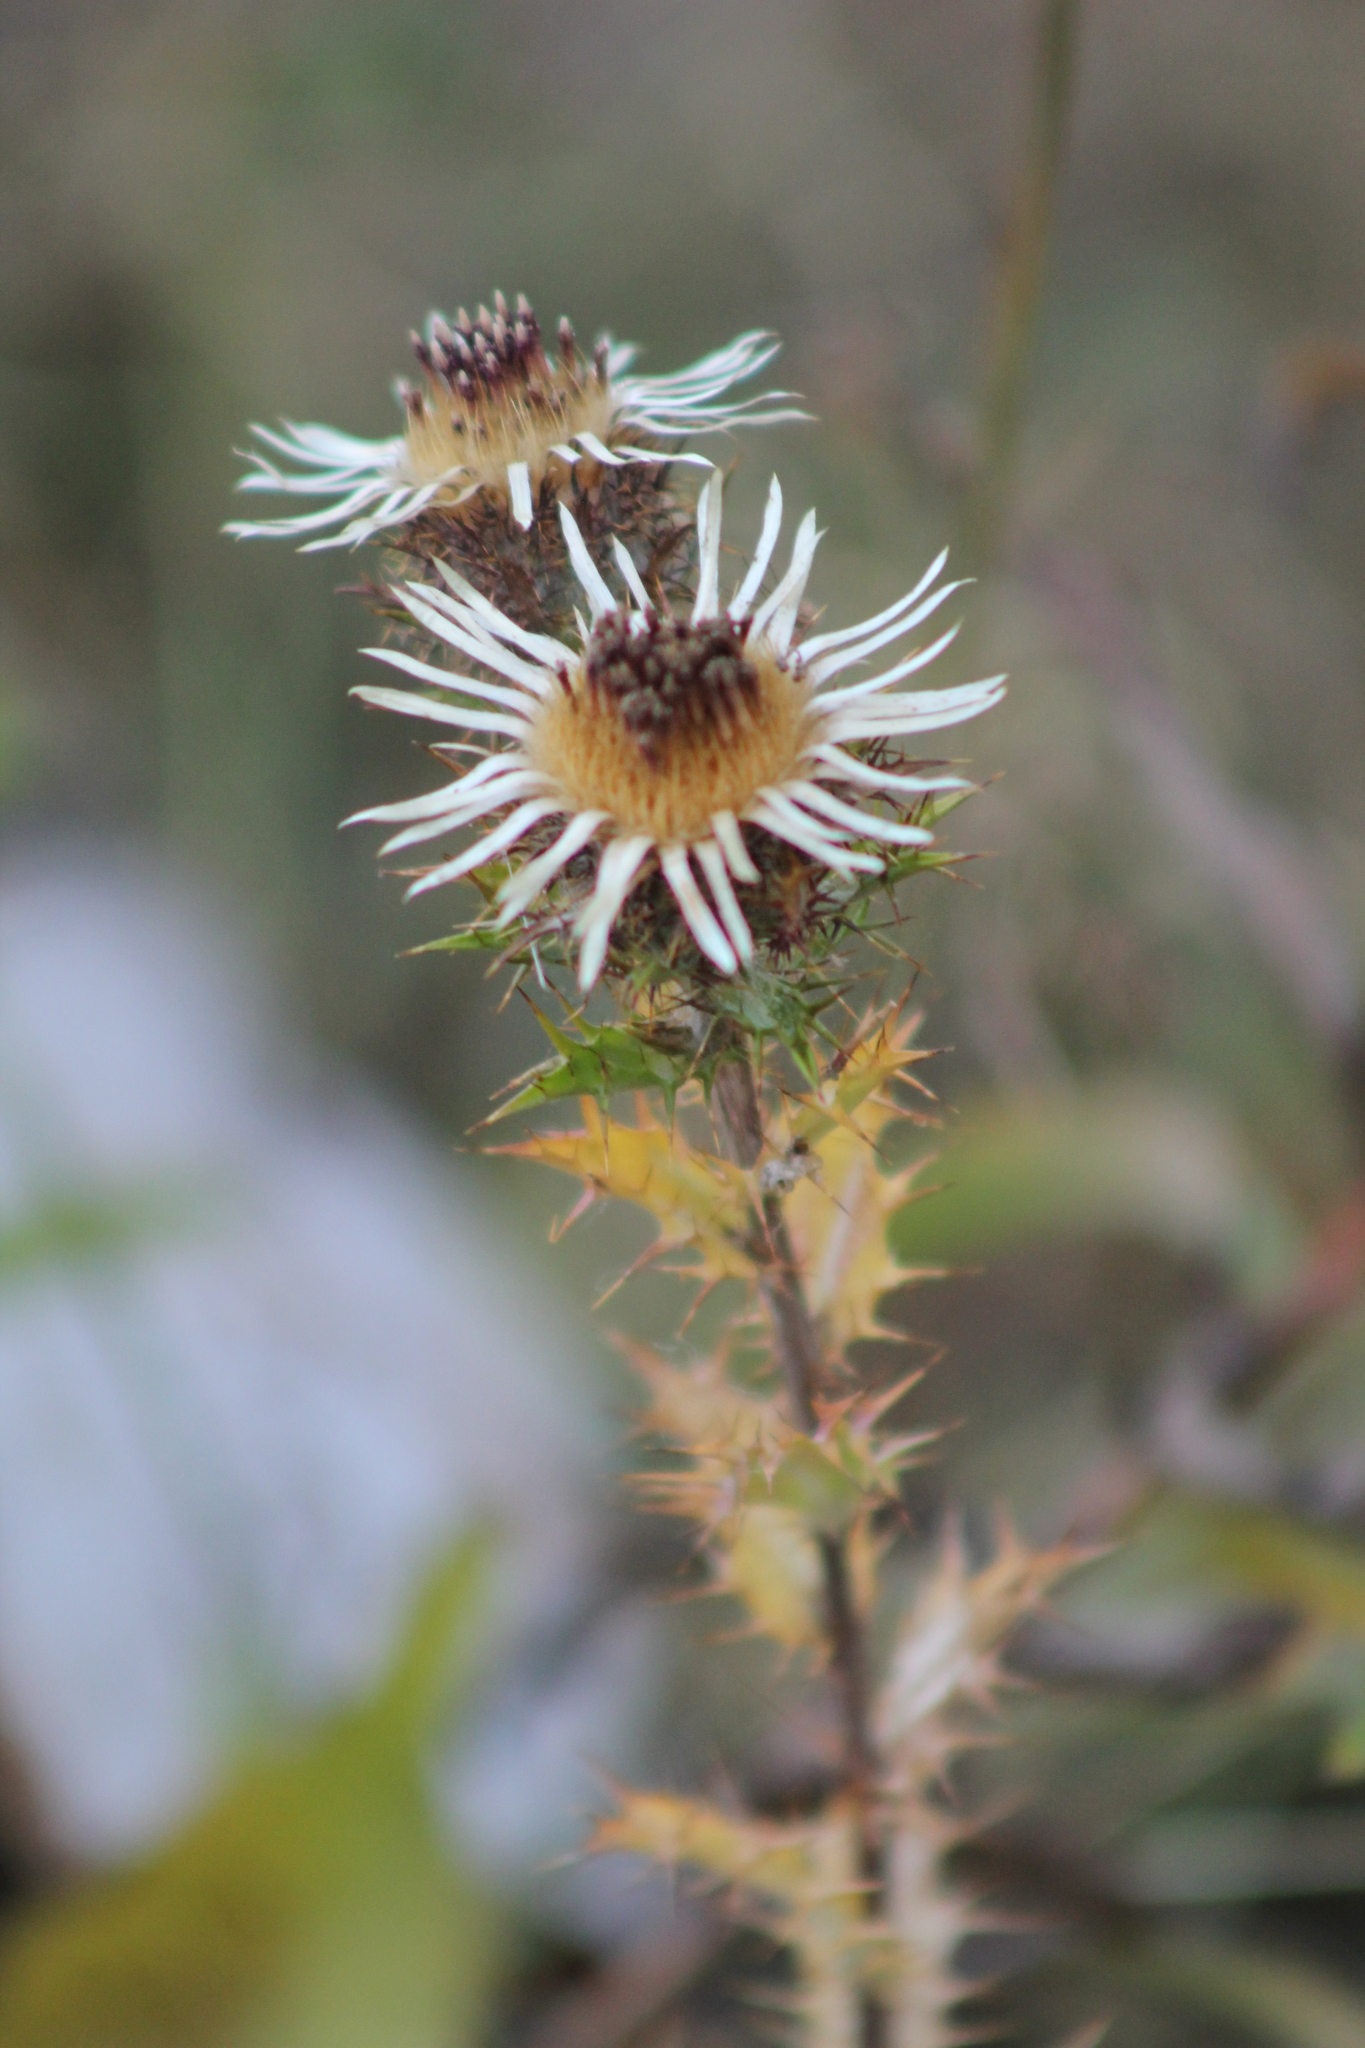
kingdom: Plantae
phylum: Tracheophyta
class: Magnoliopsida
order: Asterales
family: Asteraceae
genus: Carlina
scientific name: Carlina vulgaris
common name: Carline thistle
